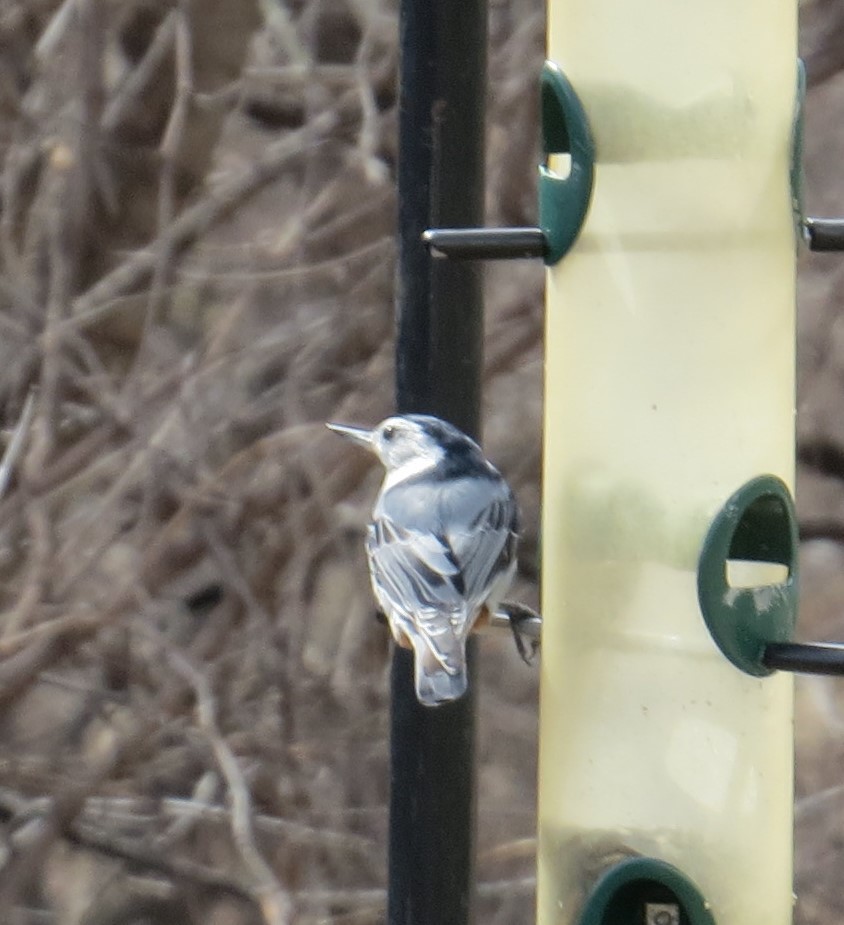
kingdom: Animalia
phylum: Chordata
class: Aves
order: Passeriformes
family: Sittidae
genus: Sitta
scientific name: Sitta carolinensis
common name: White-breasted nuthatch
